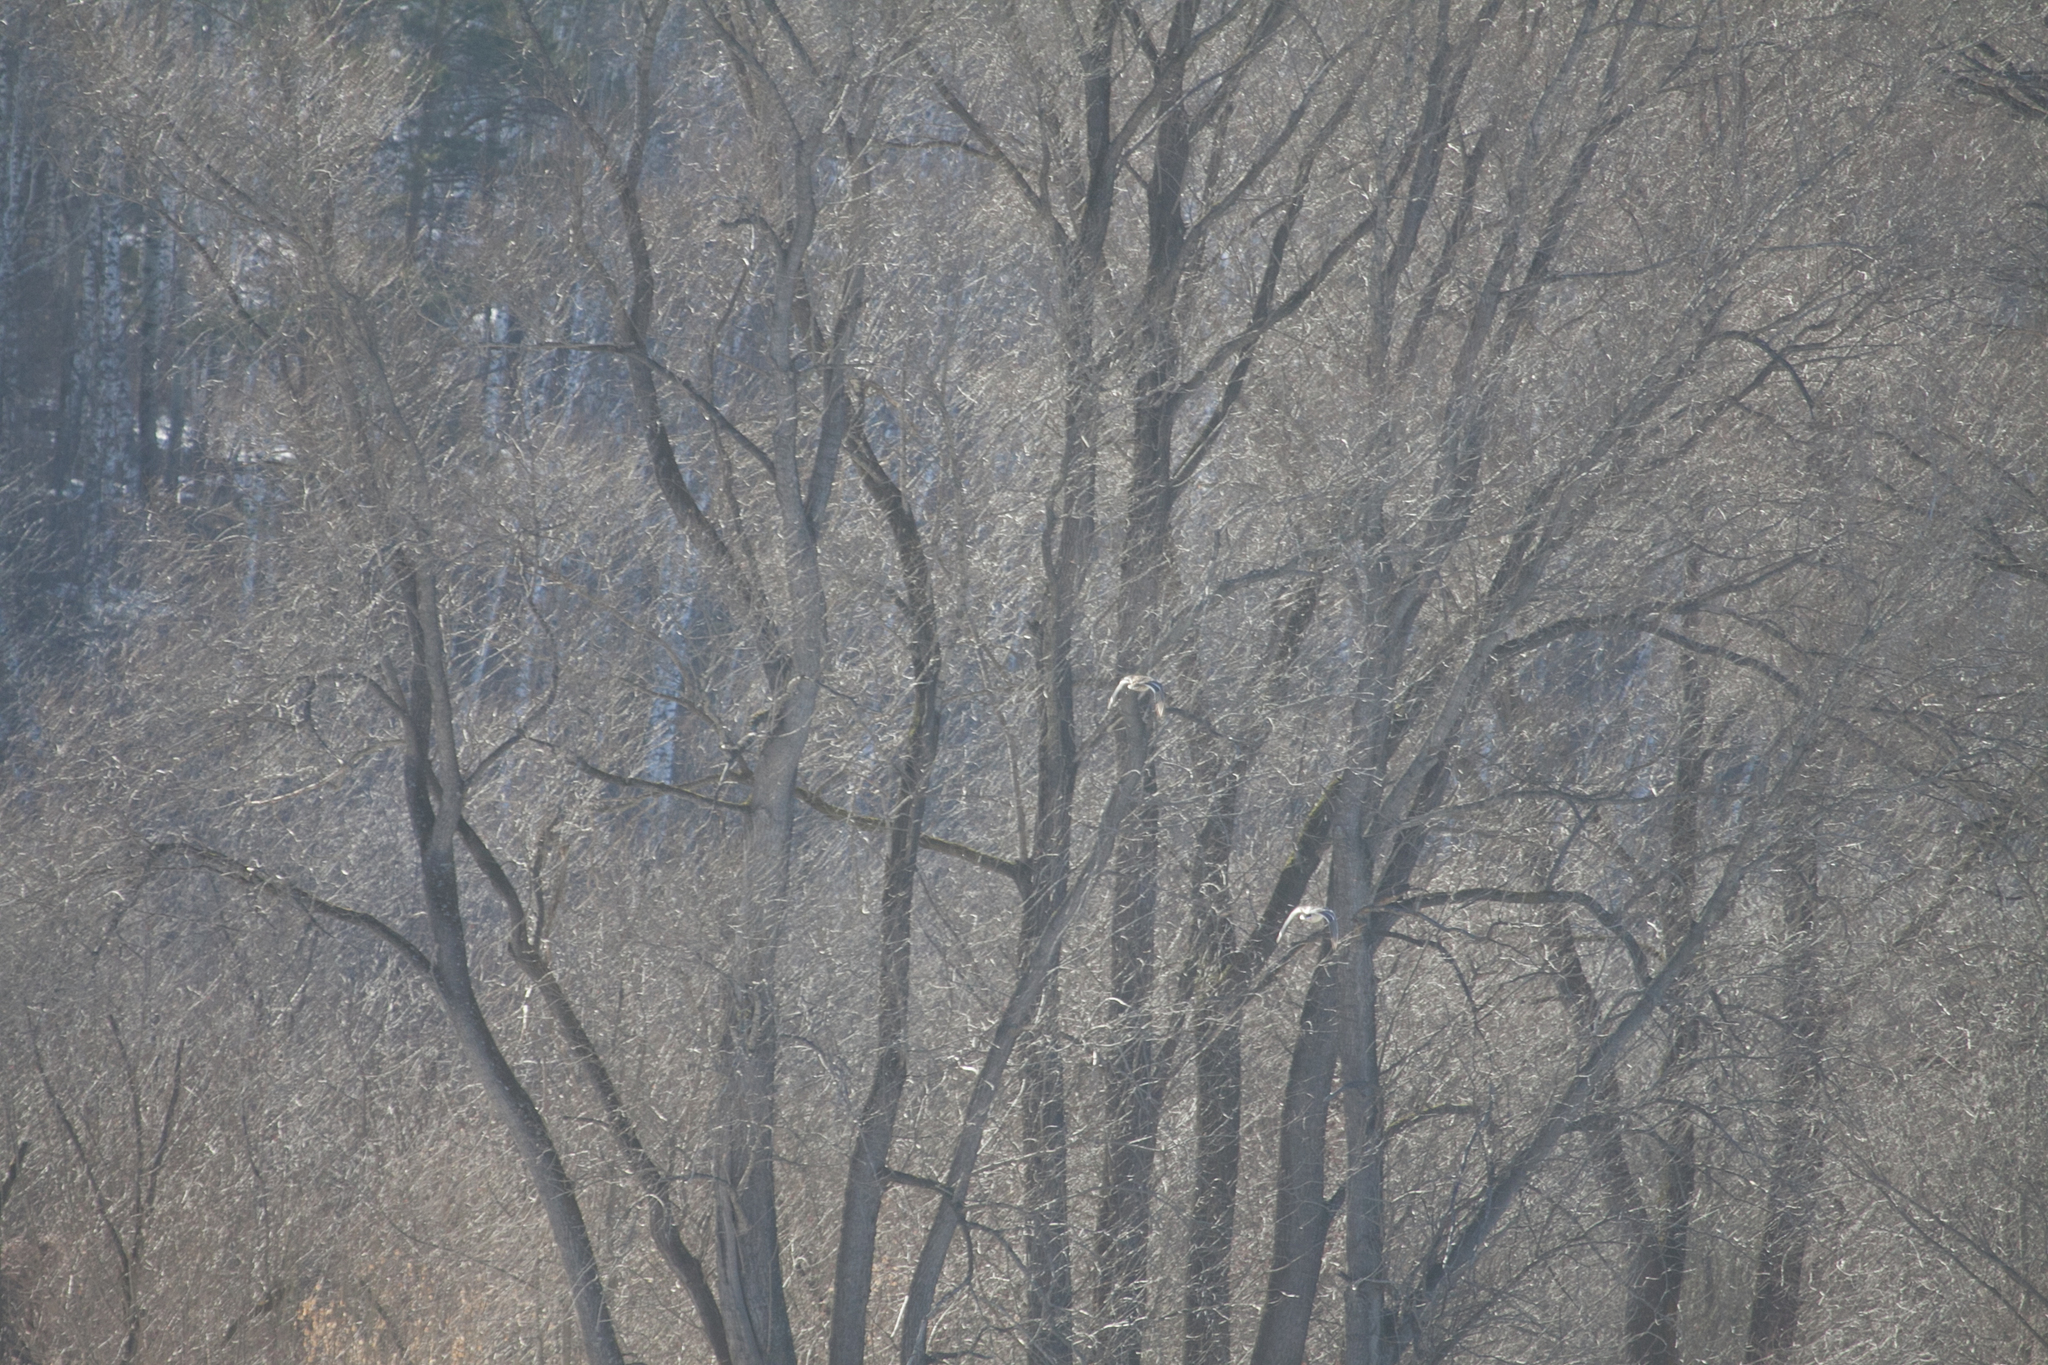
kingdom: Animalia
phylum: Chordata
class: Aves
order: Anseriformes
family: Anatidae
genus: Anas
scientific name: Anas platyrhynchos
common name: Mallard
